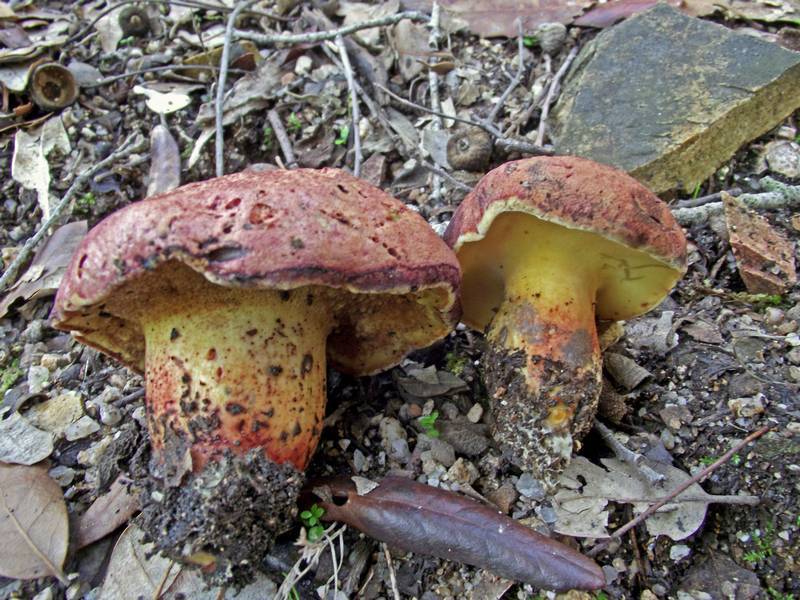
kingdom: Fungi
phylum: Basidiomycota
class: Agaricomycetes
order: Boletales
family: Boletaceae
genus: Baorangia
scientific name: Baorangia emileorum
